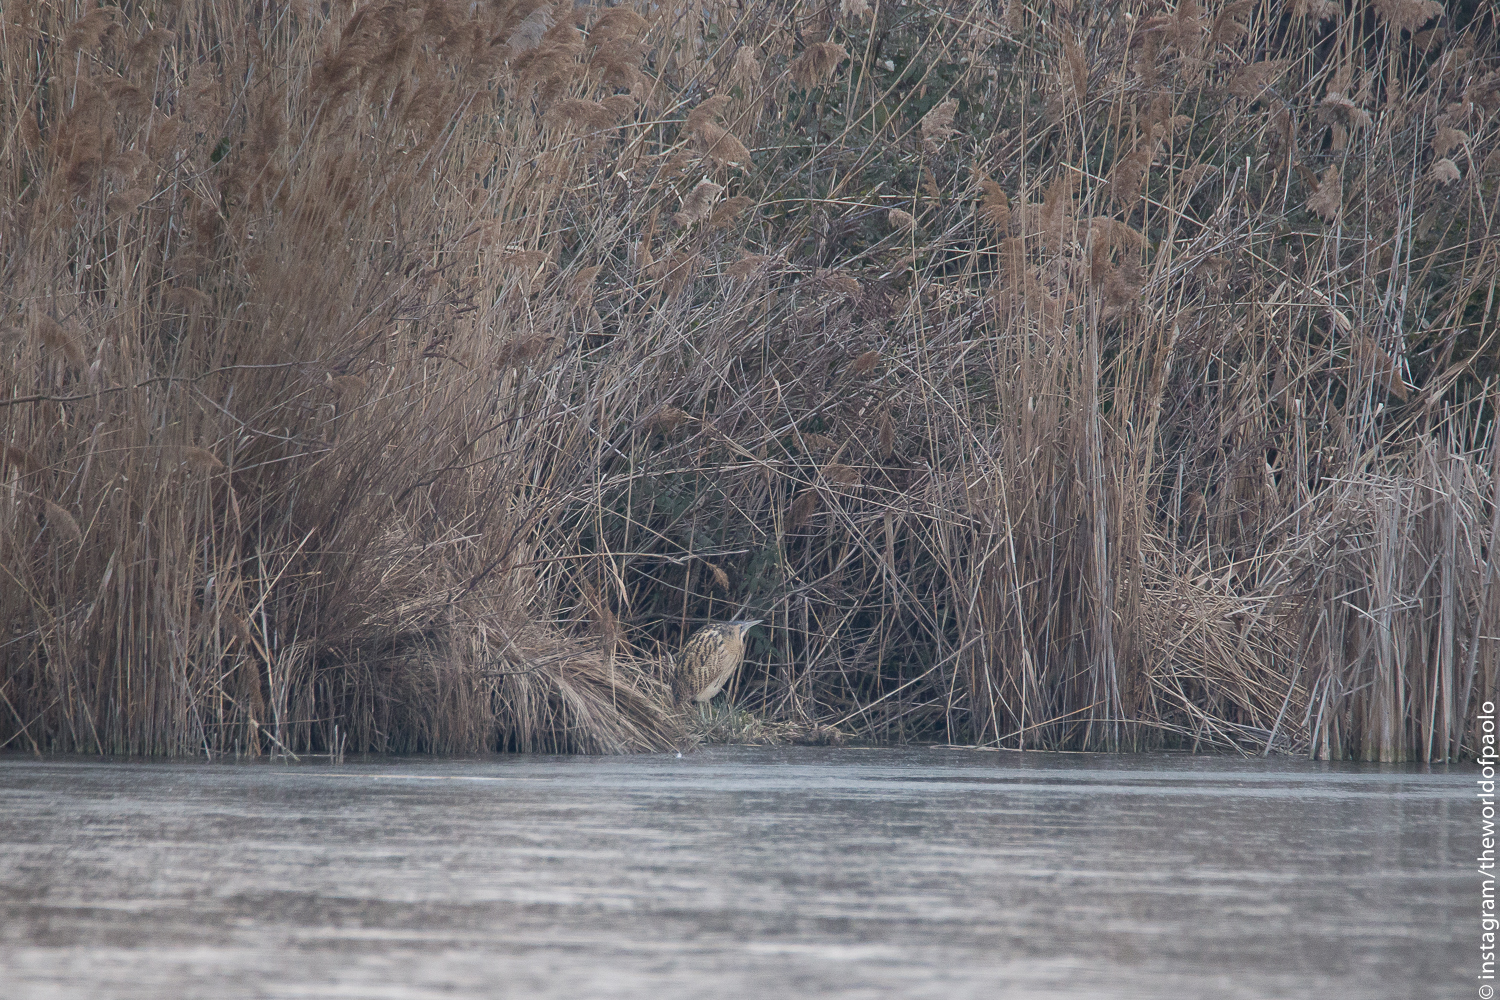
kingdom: Animalia
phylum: Chordata
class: Aves
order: Pelecaniformes
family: Ardeidae
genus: Botaurus
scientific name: Botaurus stellaris
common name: Eurasian bittern
